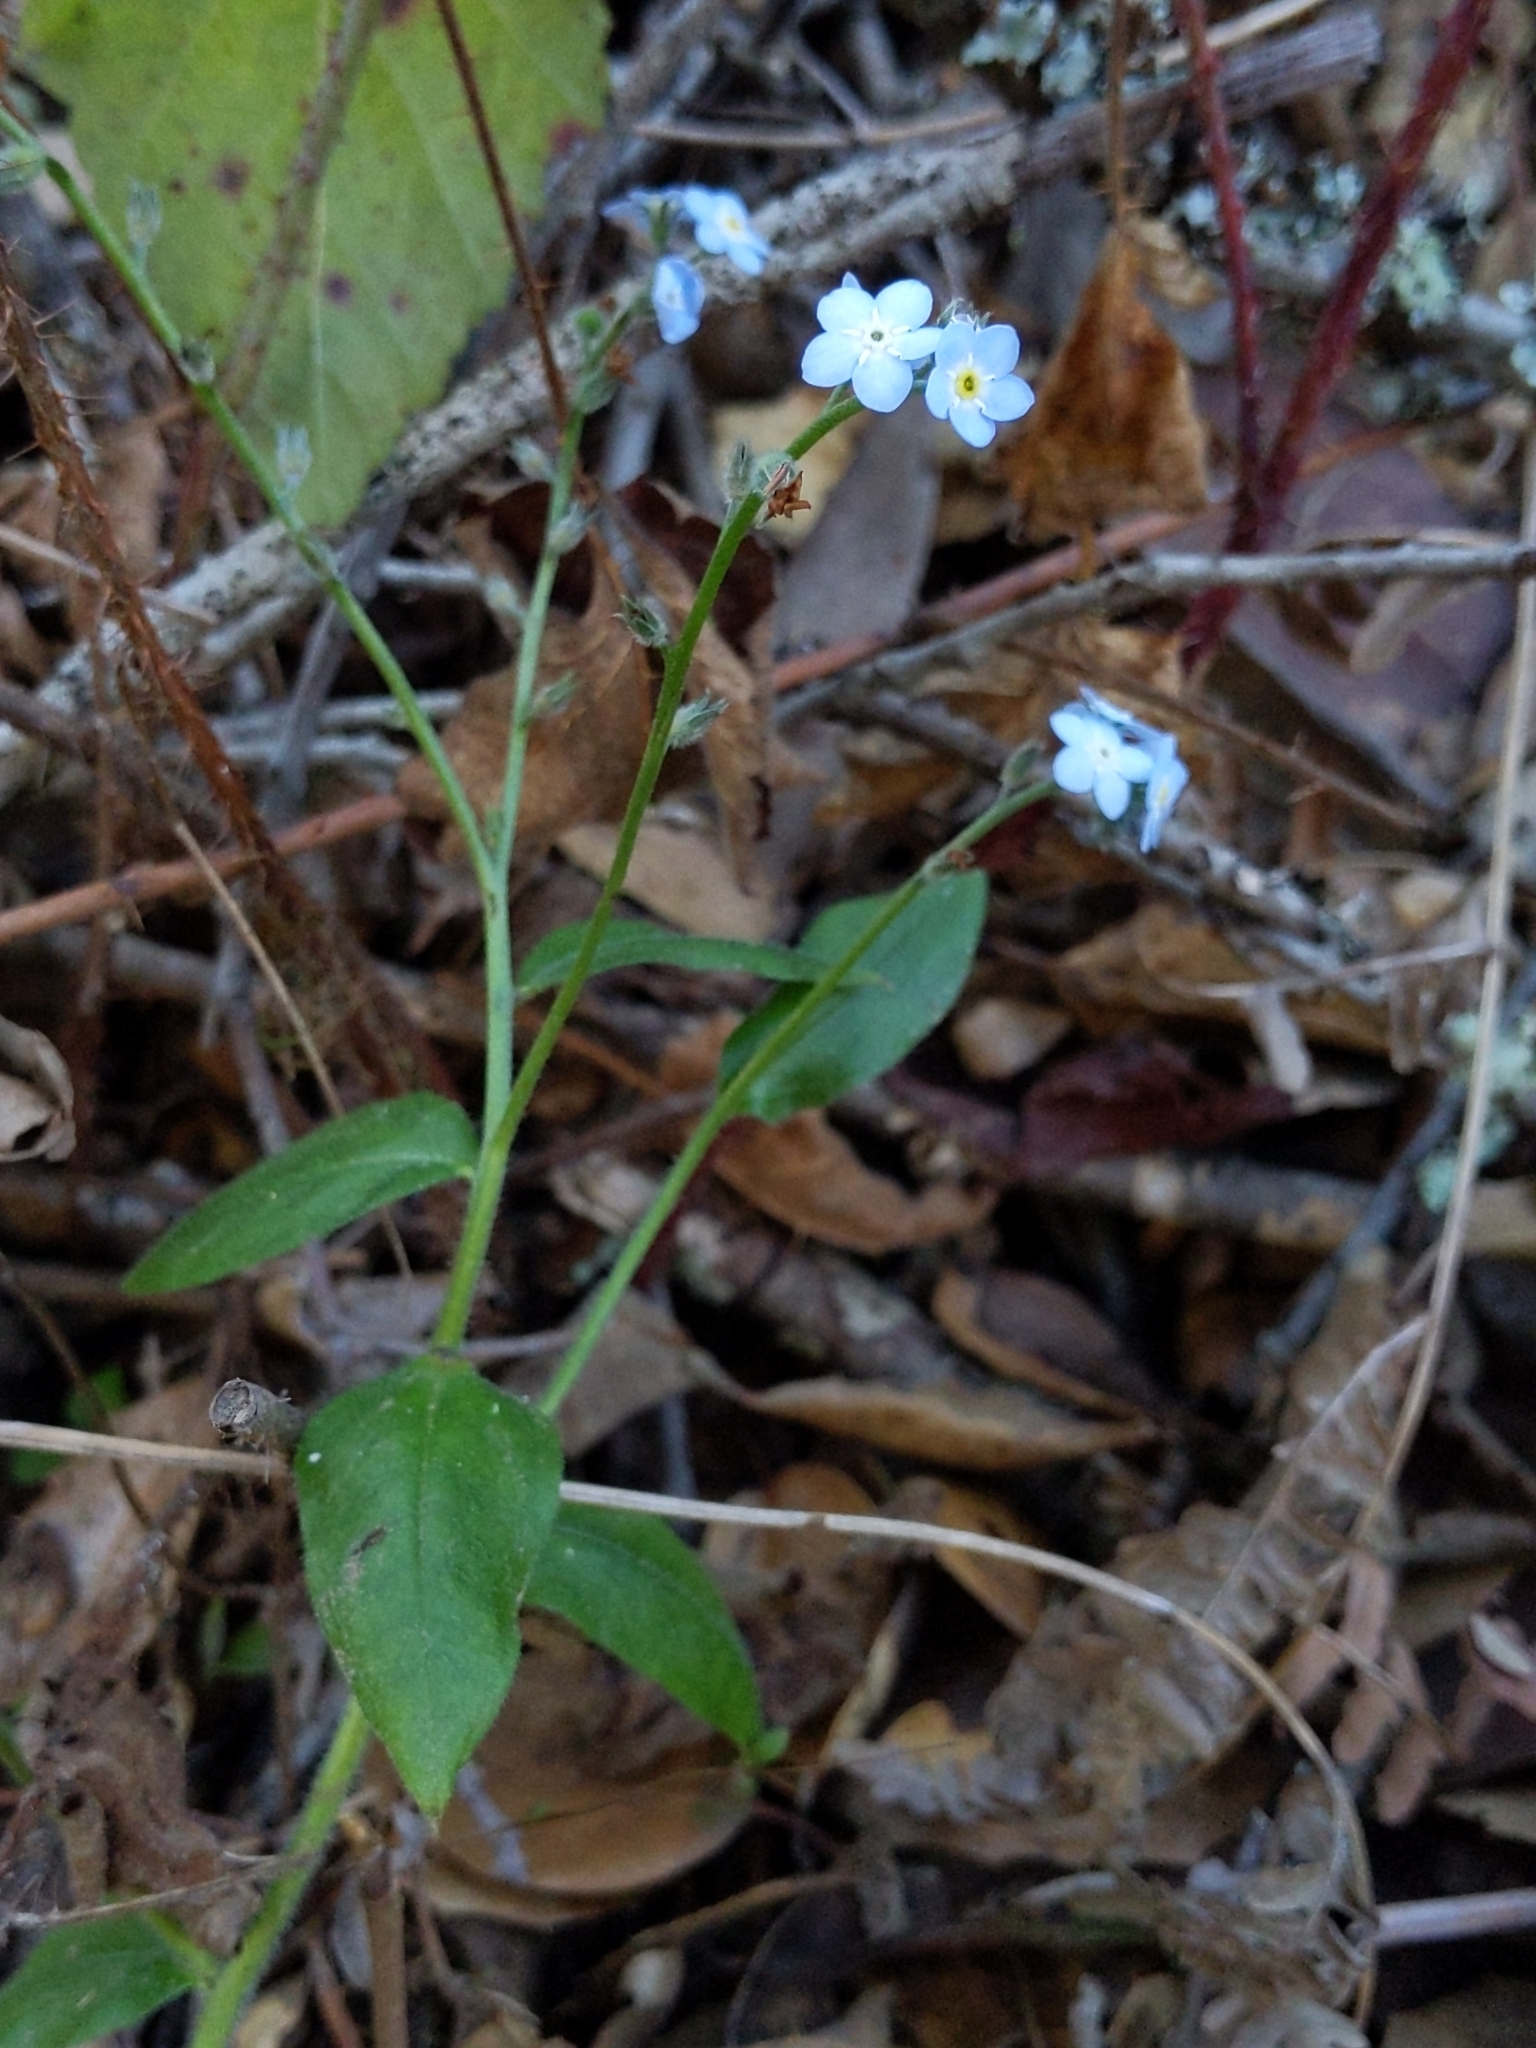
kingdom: Plantae
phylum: Tracheophyta
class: Magnoliopsida
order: Boraginales
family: Boraginaceae
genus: Myosotis
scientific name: Myosotis latifolia
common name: Broadleaf forget-me-not
